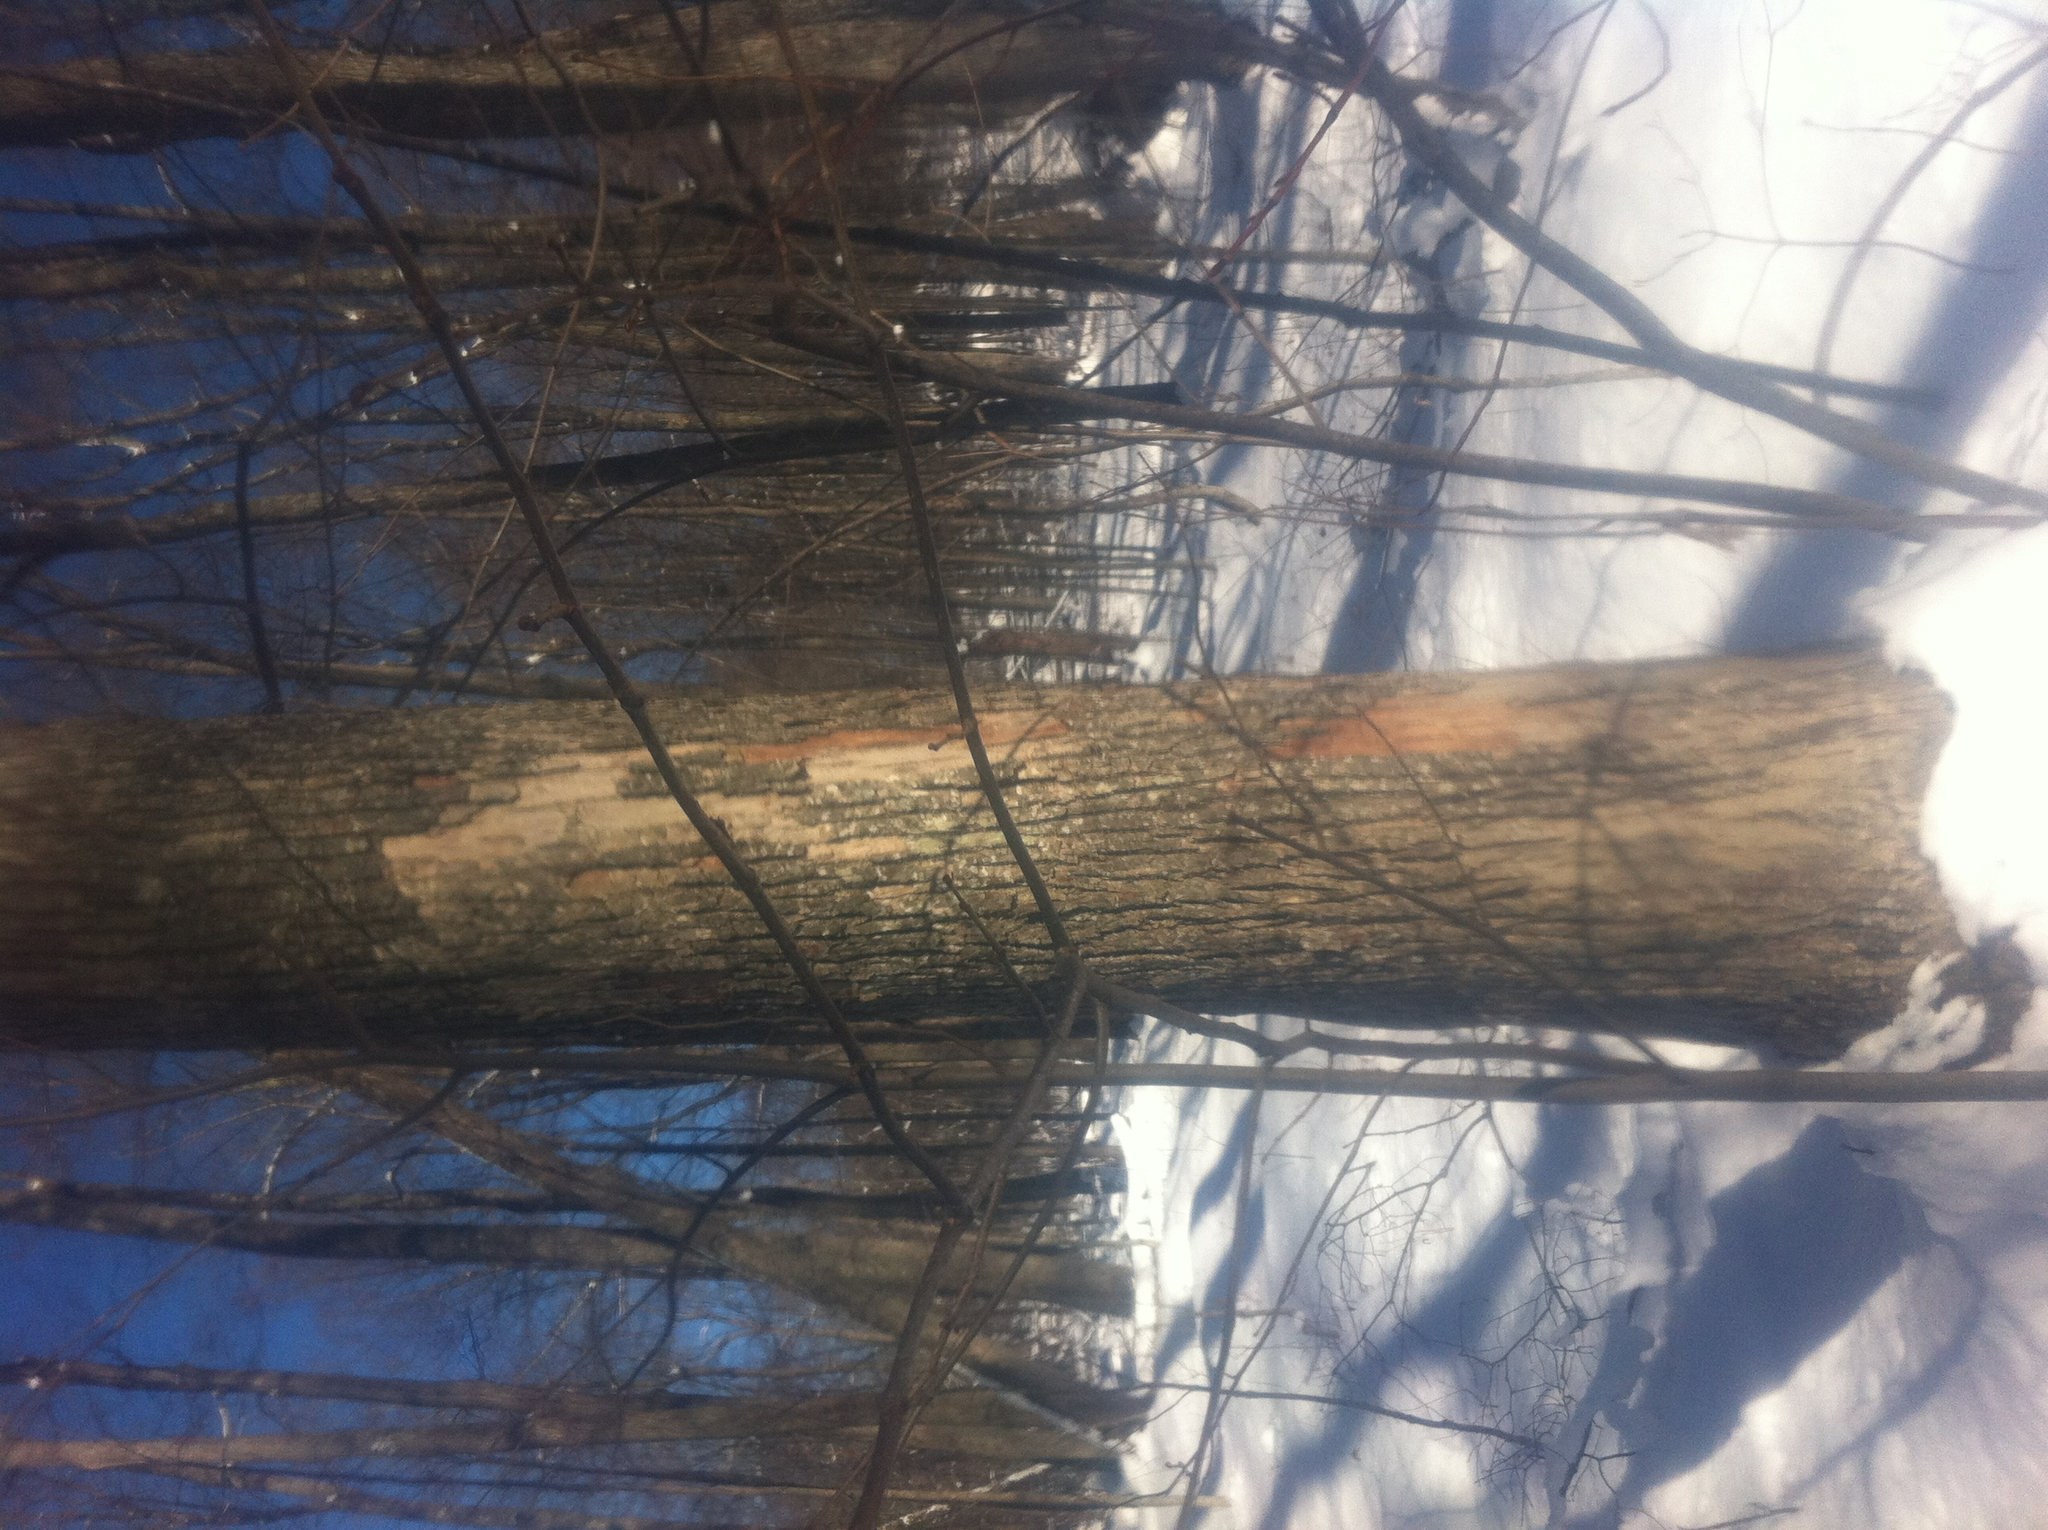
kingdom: Plantae
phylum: Tracheophyta
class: Magnoliopsida
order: Malvales
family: Malvaceae
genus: Tilia
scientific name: Tilia americana
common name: Basswood
